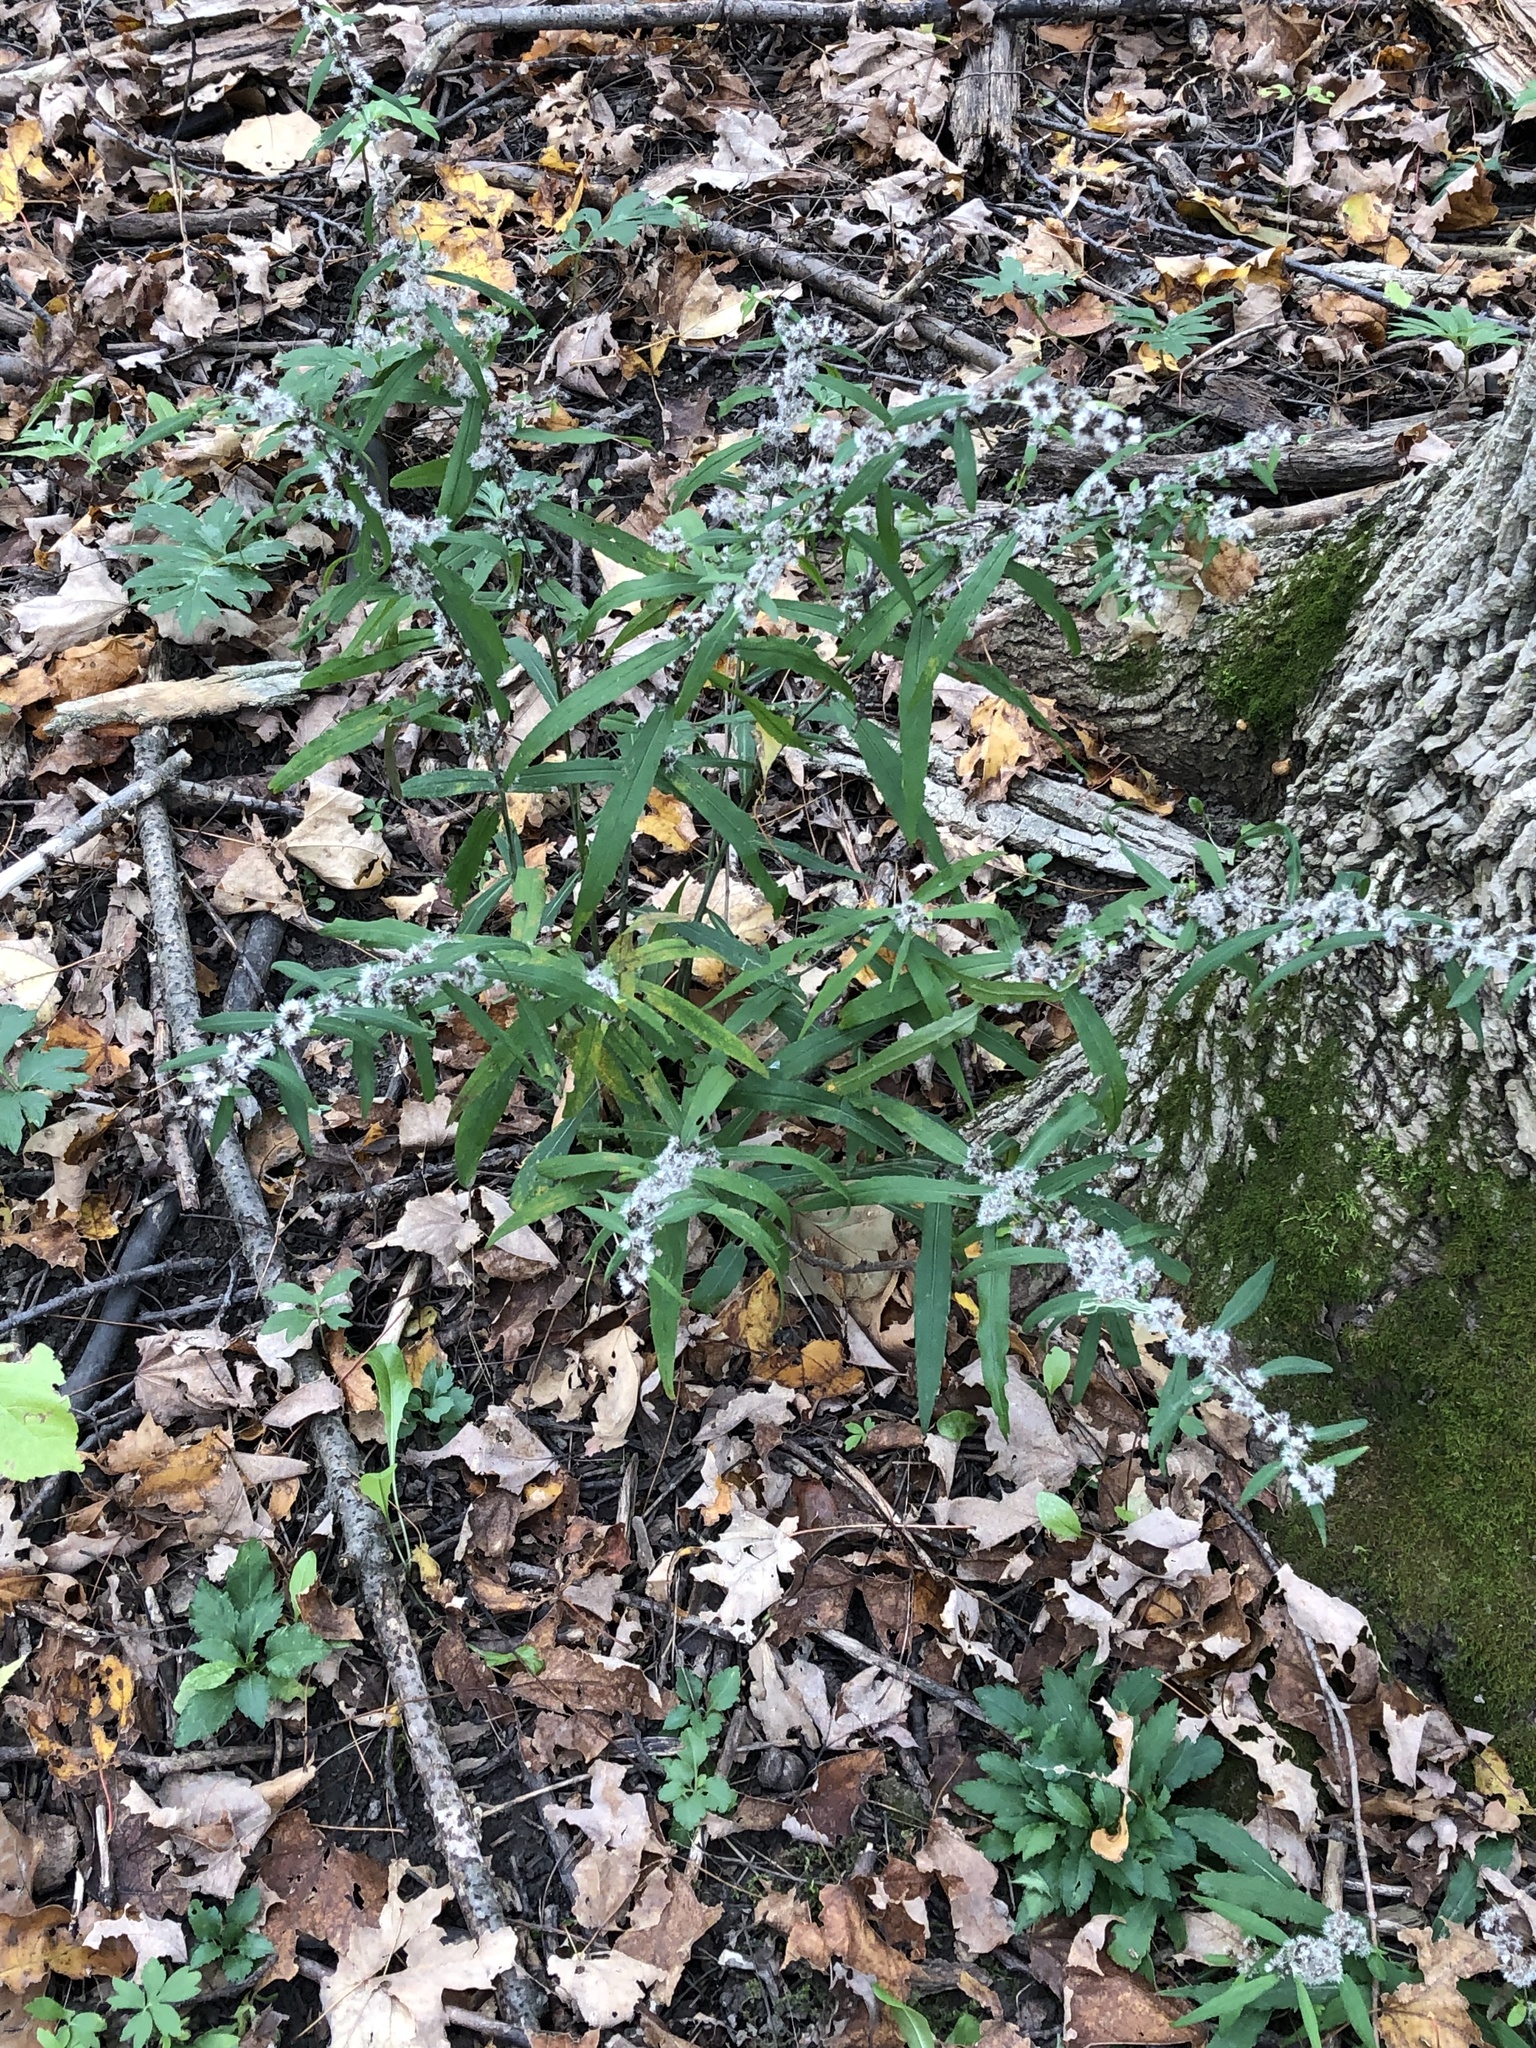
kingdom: Plantae
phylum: Tracheophyta
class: Magnoliopsida
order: Asterales
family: Asteraceae
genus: Solidago
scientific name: Solidago caesia
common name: Woodland goldenrod
